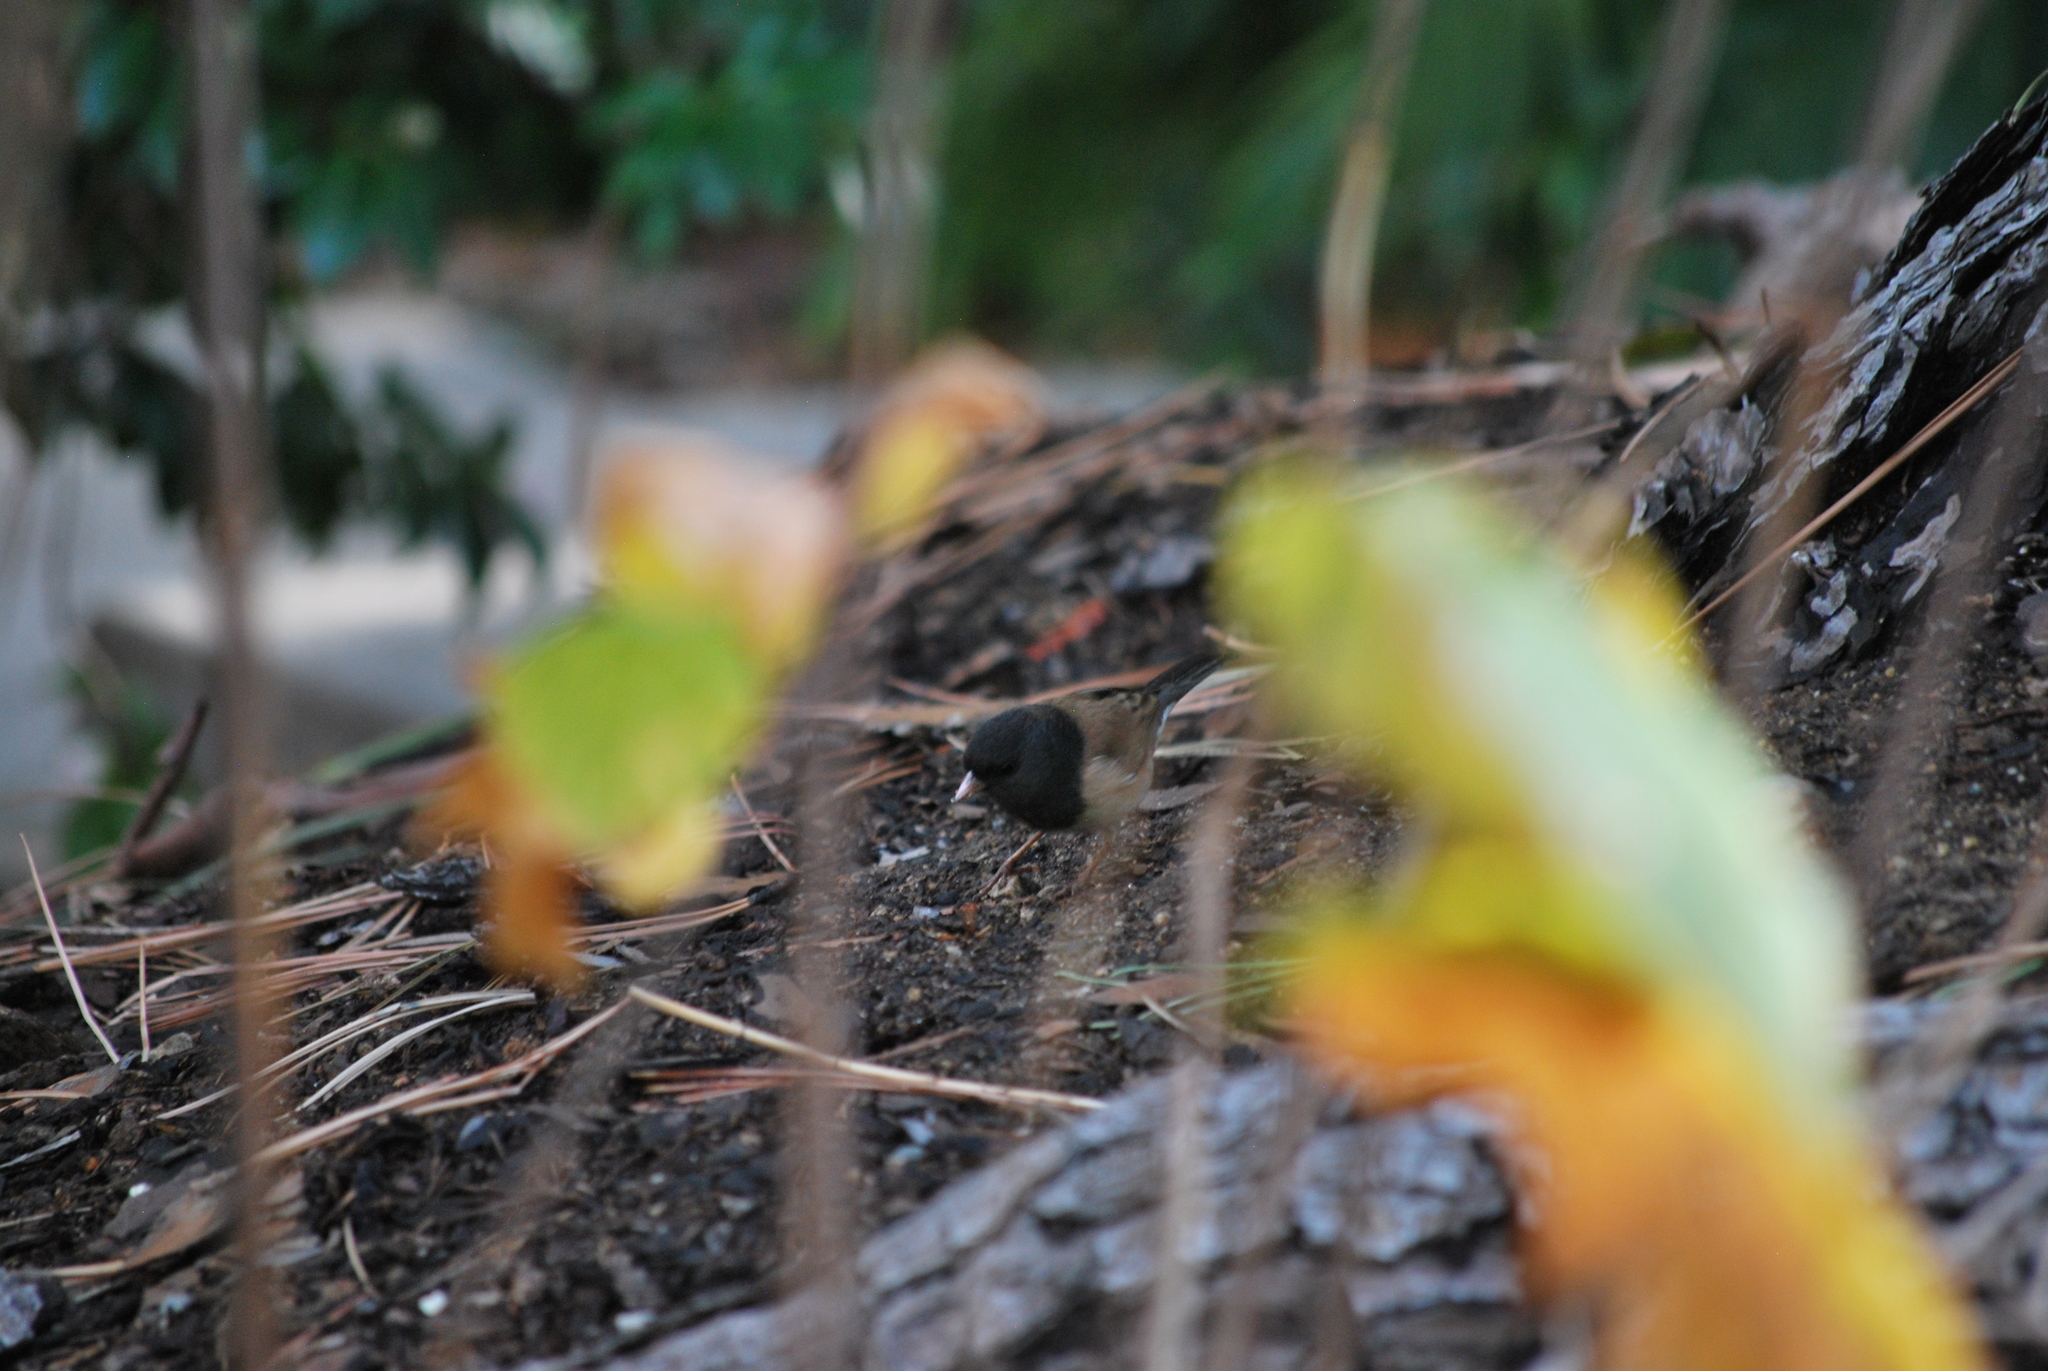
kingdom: Animalia
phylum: Chordata
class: Aves
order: Passeriformes
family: Passerellidae
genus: Junco
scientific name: Junco hyemalis
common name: Dark-eyed junco
